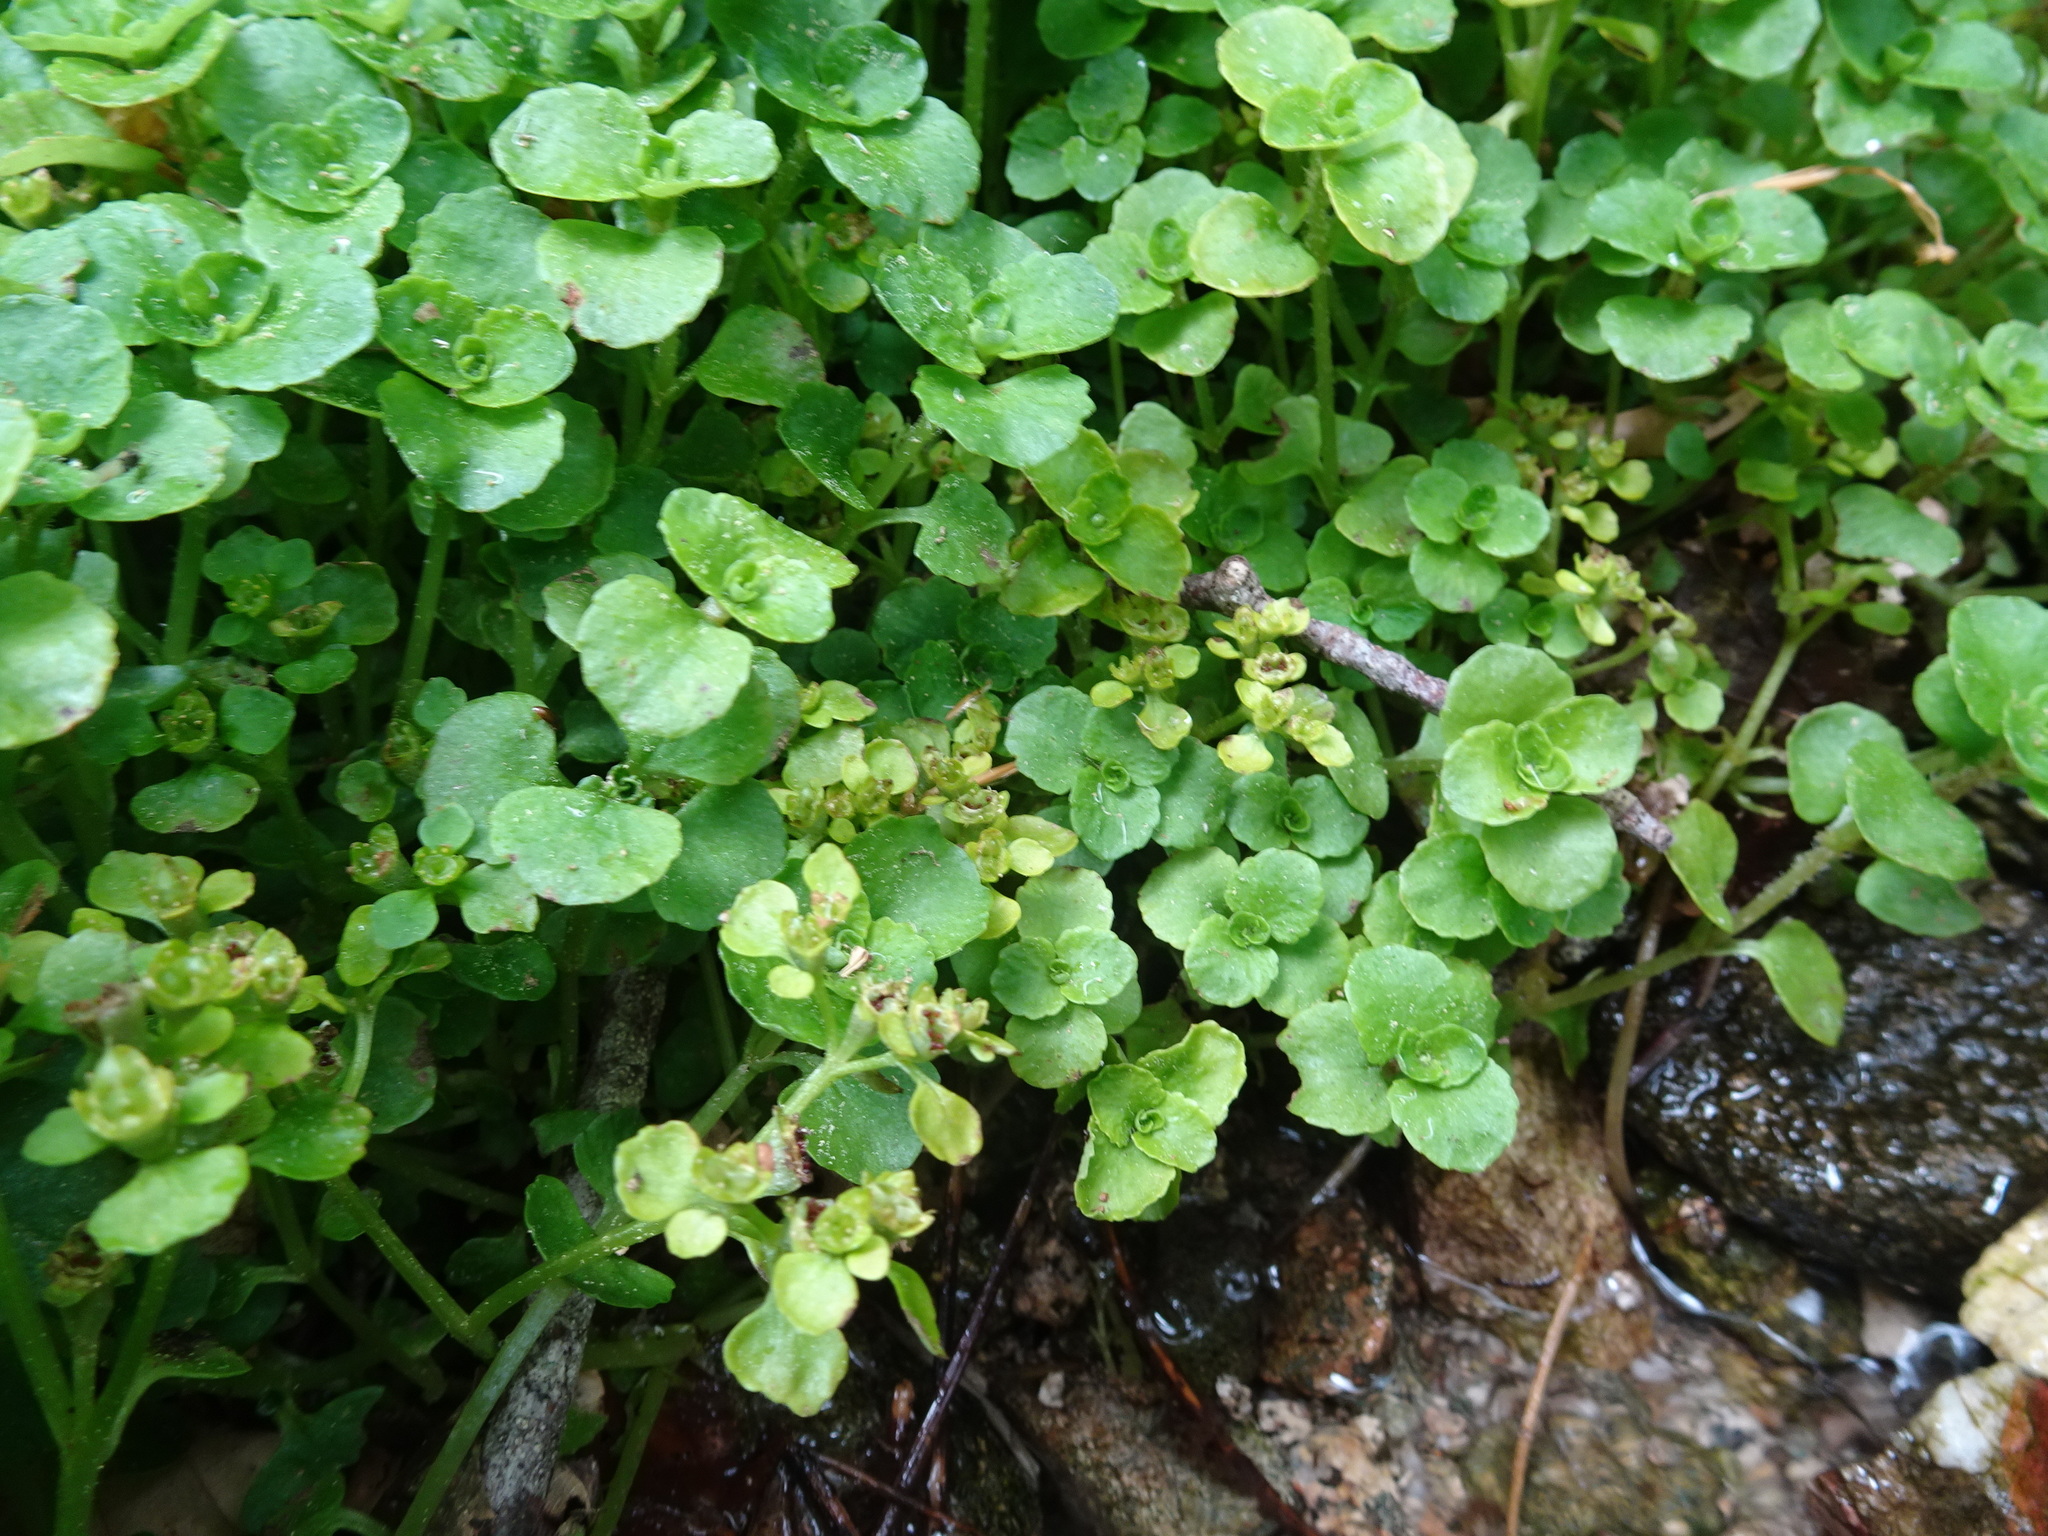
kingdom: Plantae
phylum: Tracheophyta
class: Magnoliopsida
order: Saxifragales
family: Saxifragaceae
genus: Chrysosplenium
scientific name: Chrysosplenium oppositifolium
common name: Opposite-leaved golden-saxifrage
